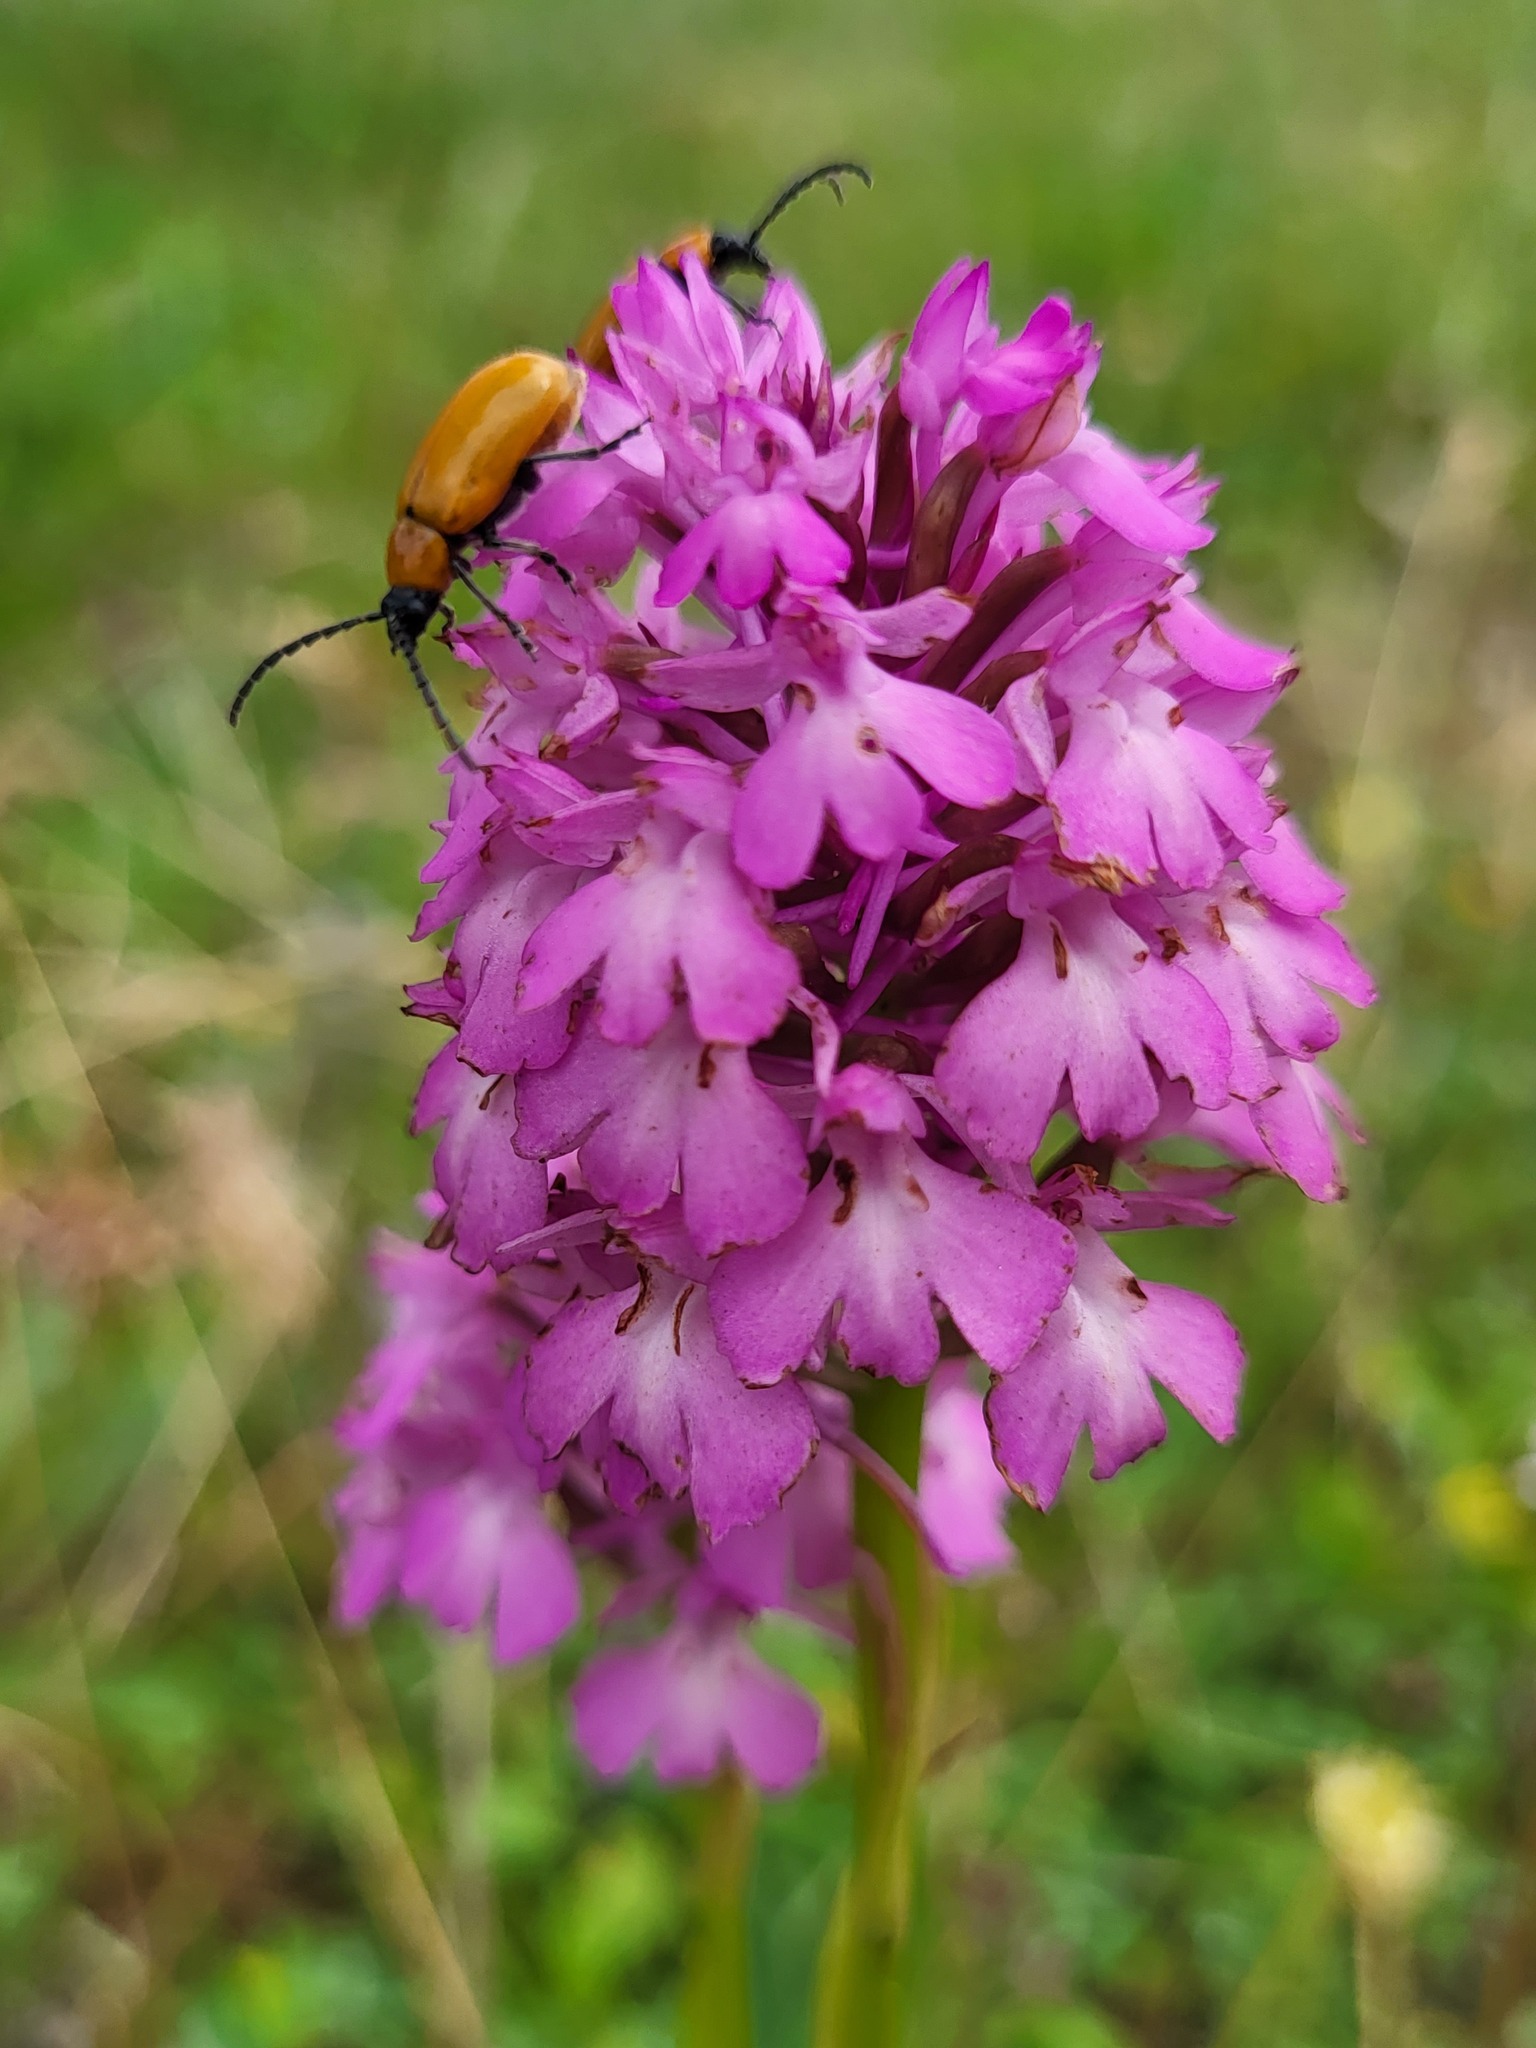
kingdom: Plantae
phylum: Tracheophyta
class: Liliopsida
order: Asparagales
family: Orchidaceae
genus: Anacamptis
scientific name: Anacamptis pyramidalis
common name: Pyramidal orchid
